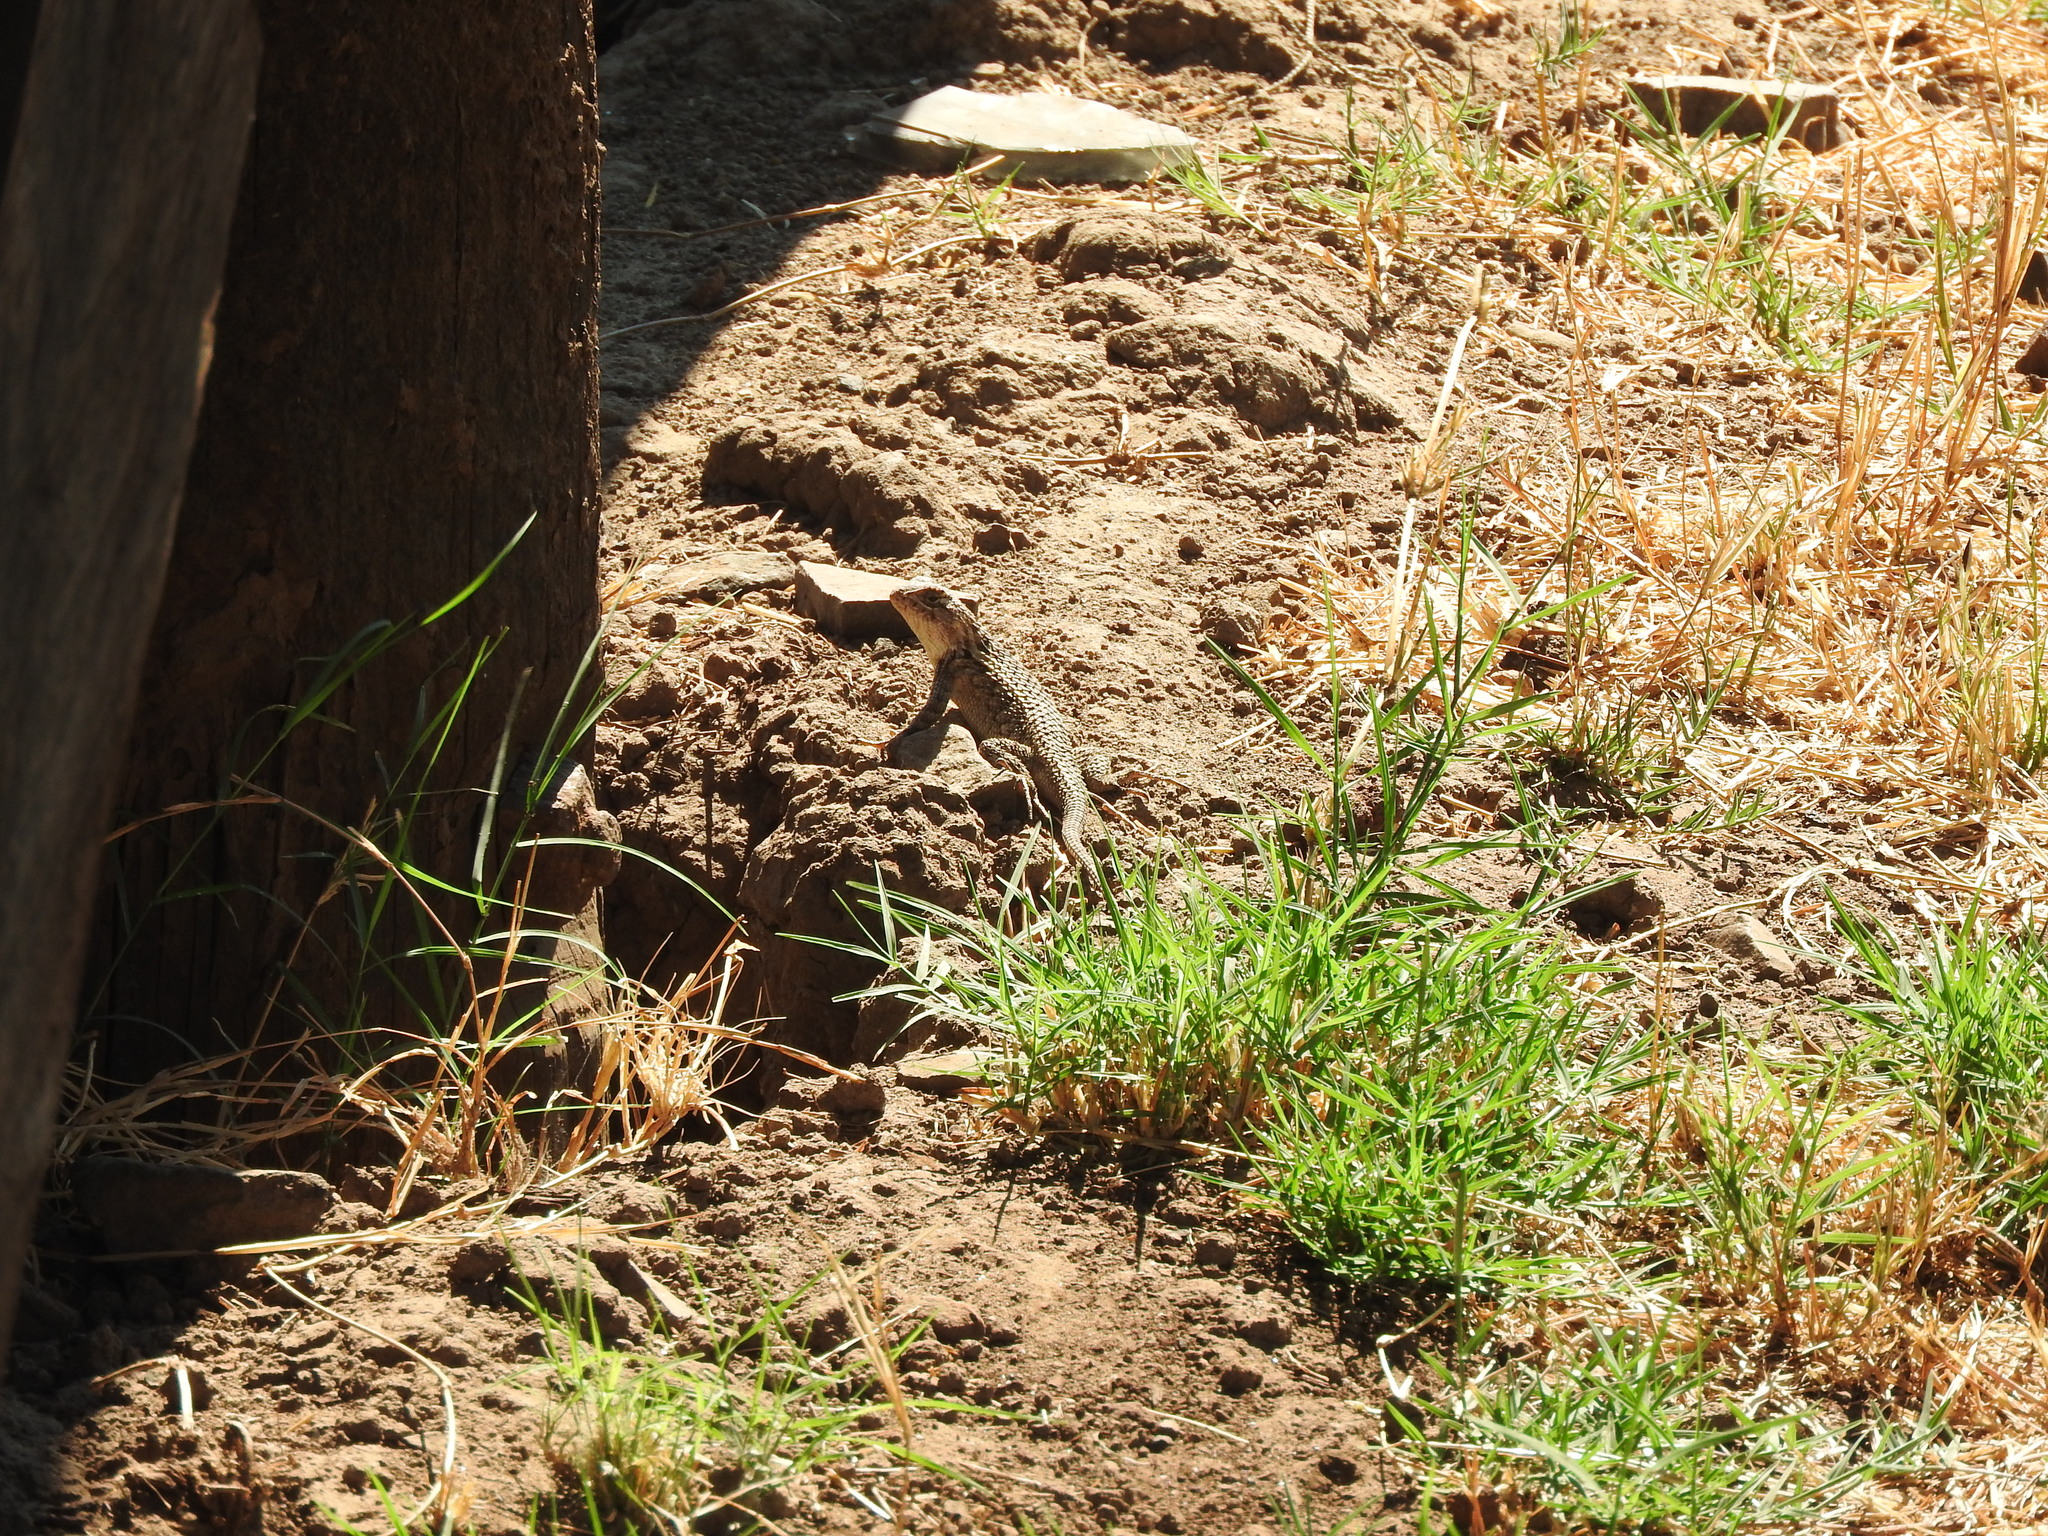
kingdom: Animalia
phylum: Chordata
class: Squamata
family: Phrynosomatidae
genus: Sceloporus
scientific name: Sceloporus spinosus
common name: Blue-spotted spiny lizard [caeruleopunctatus]
